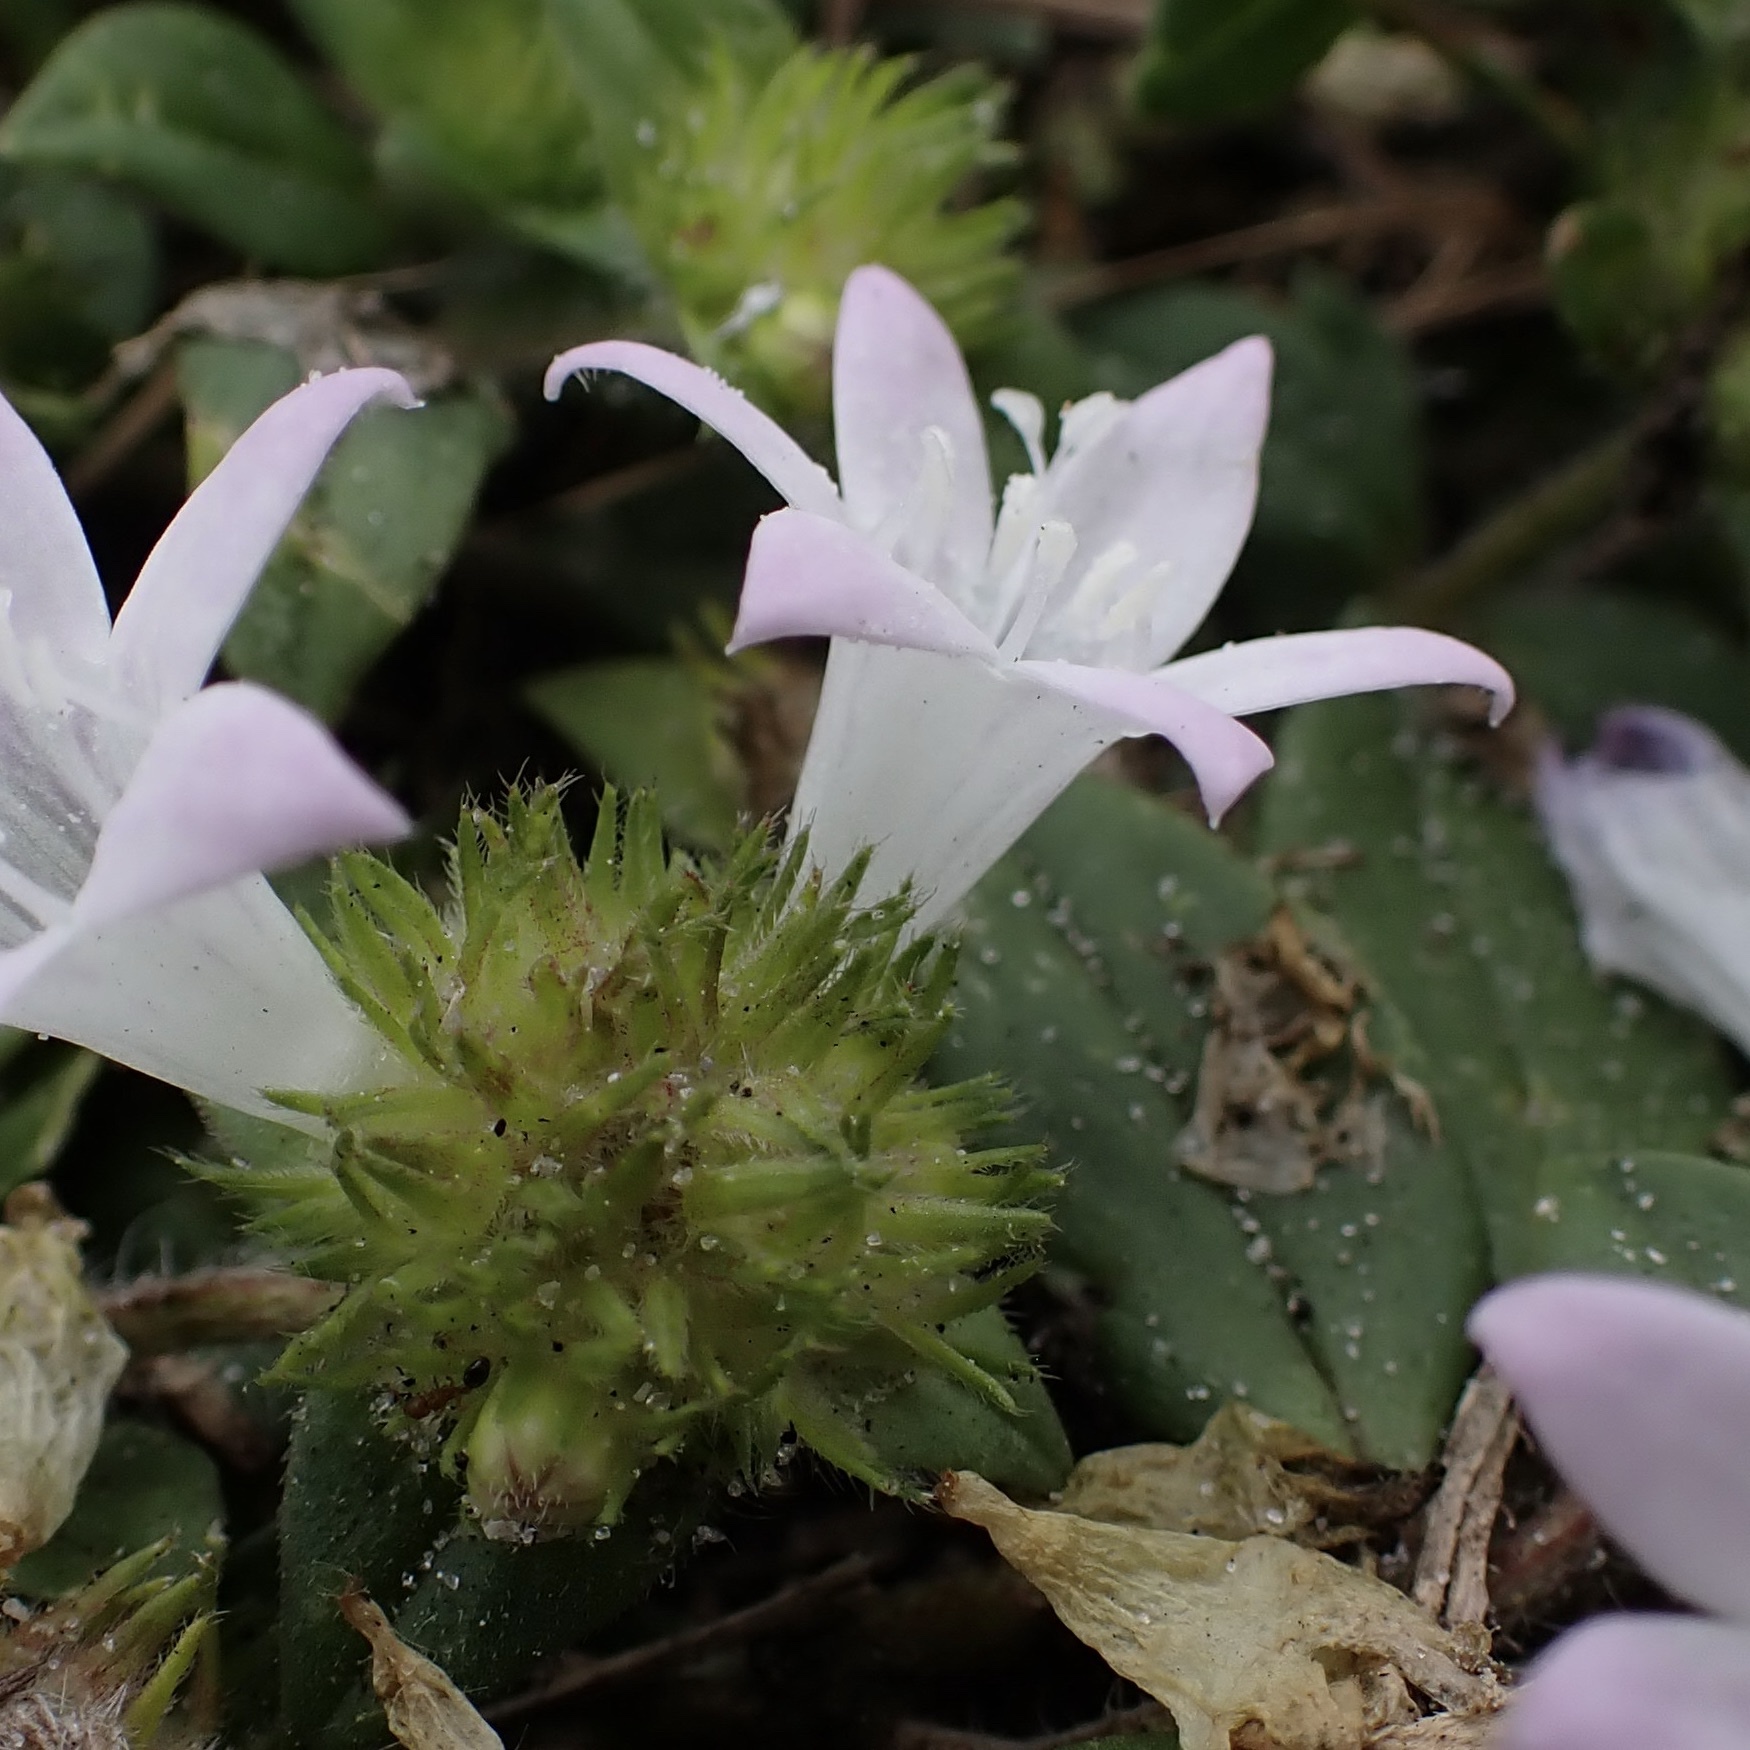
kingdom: Plantae
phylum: Tracheophyta
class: Magnoliopsida
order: Gentianales
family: Rubiaceae
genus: Richardia
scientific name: Richardia grandiflora
